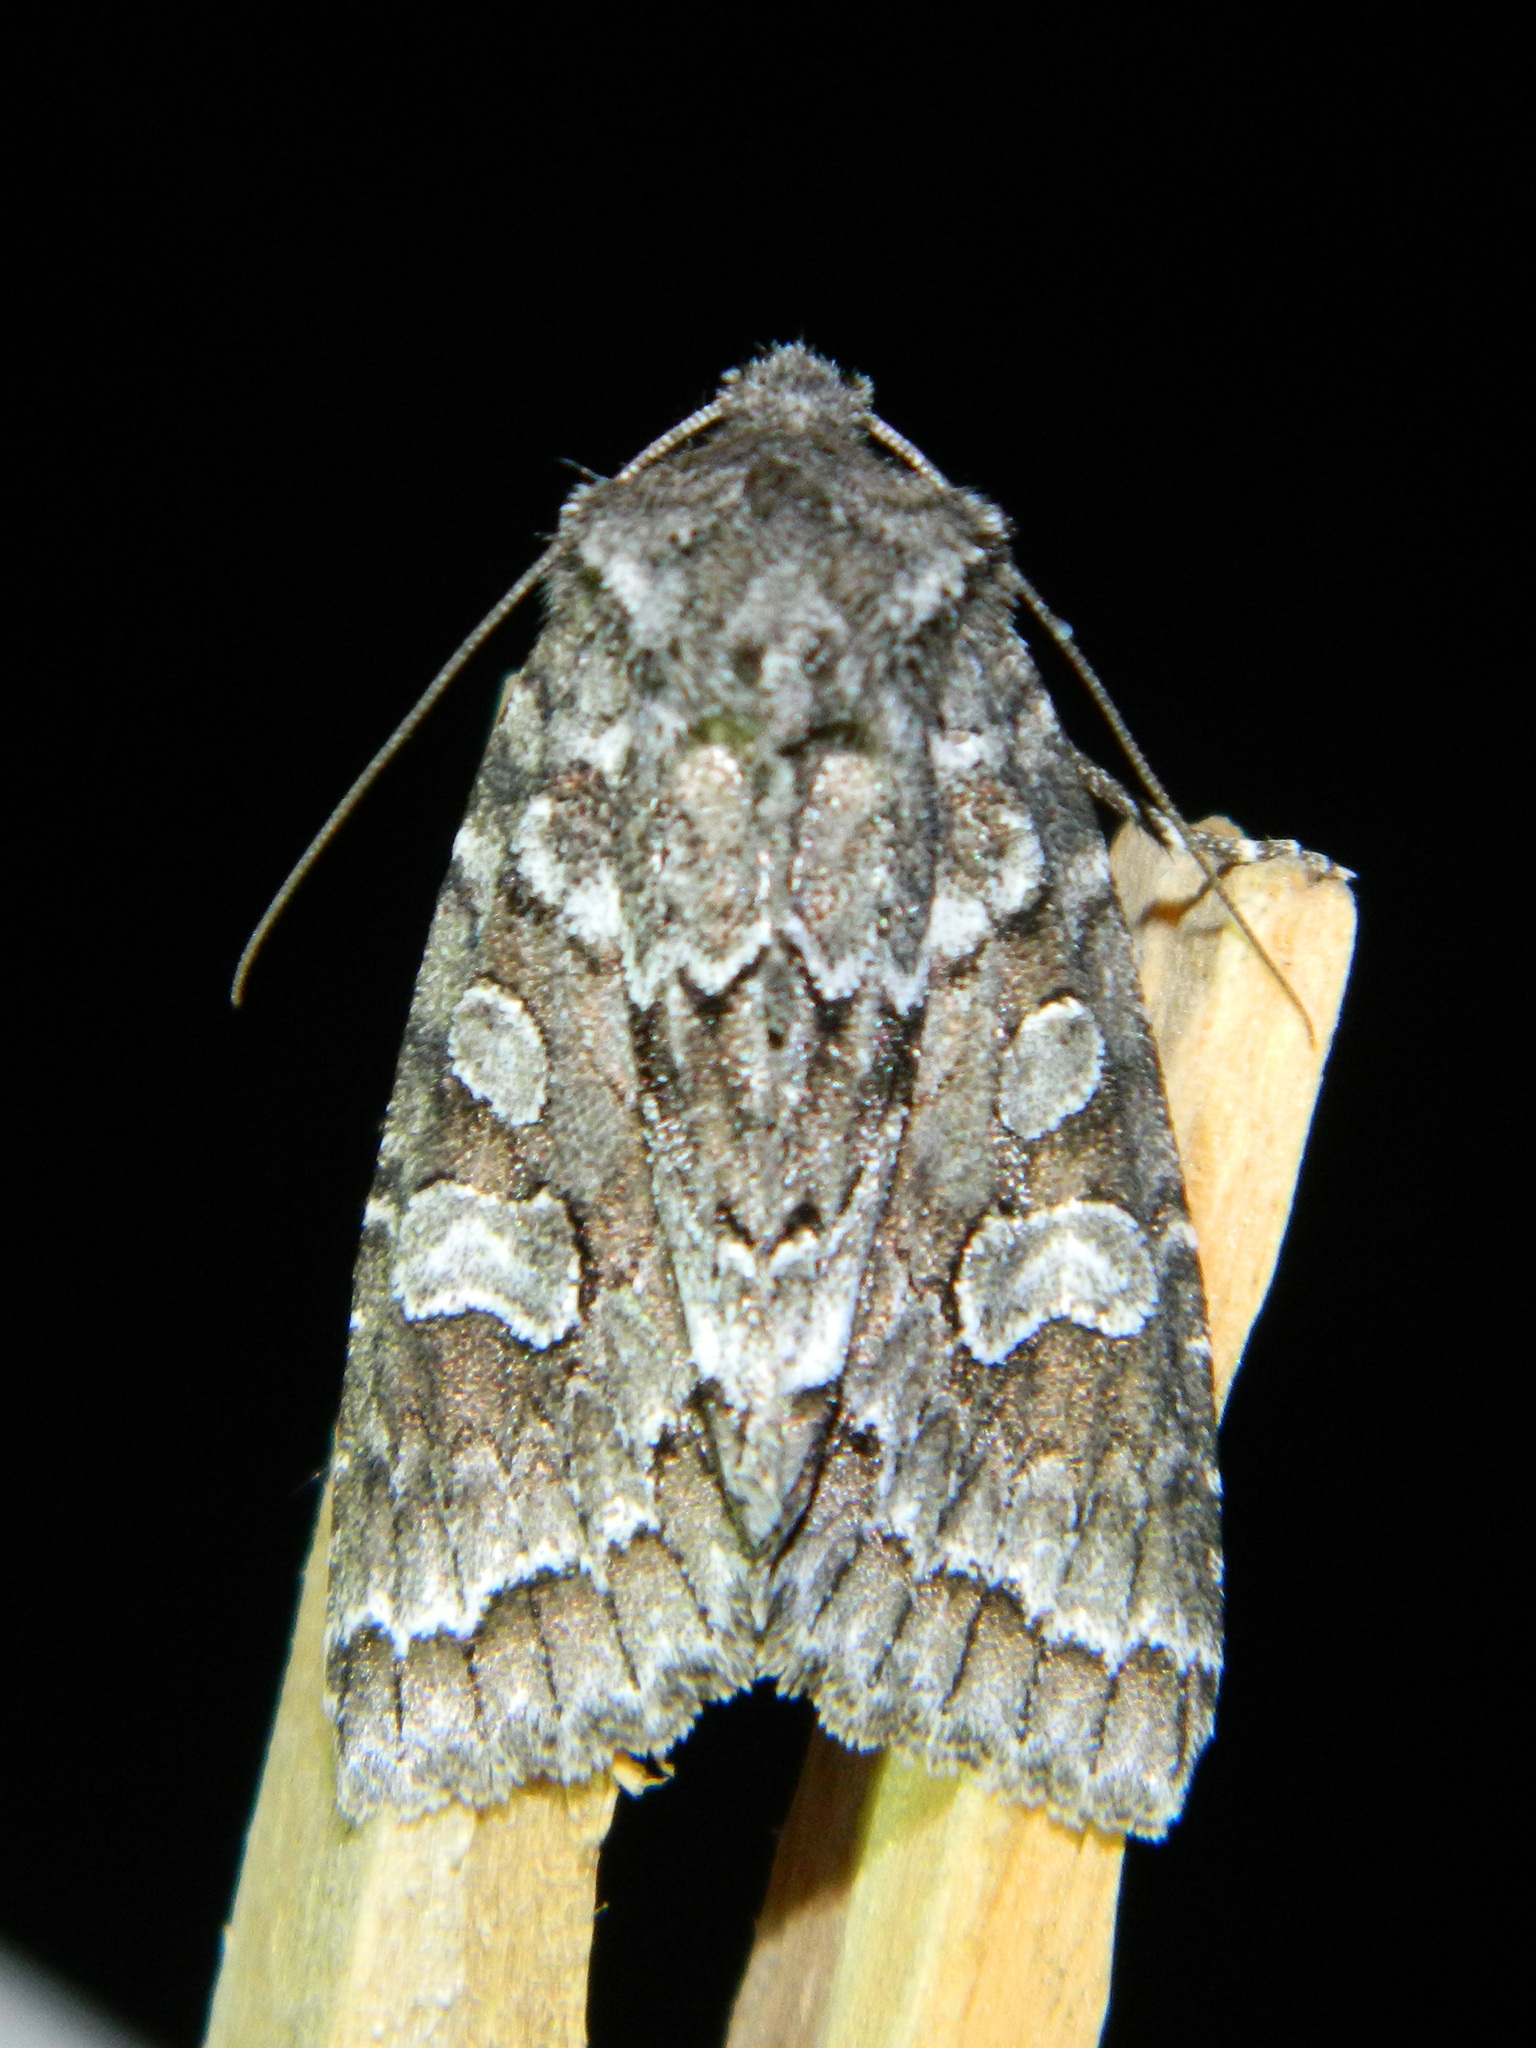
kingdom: Animalia
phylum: Arthropoda
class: Insecta
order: Lepidoptera
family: Noctuidae
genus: Xylotype
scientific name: Xylotype arcadia
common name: Acadian sallow
